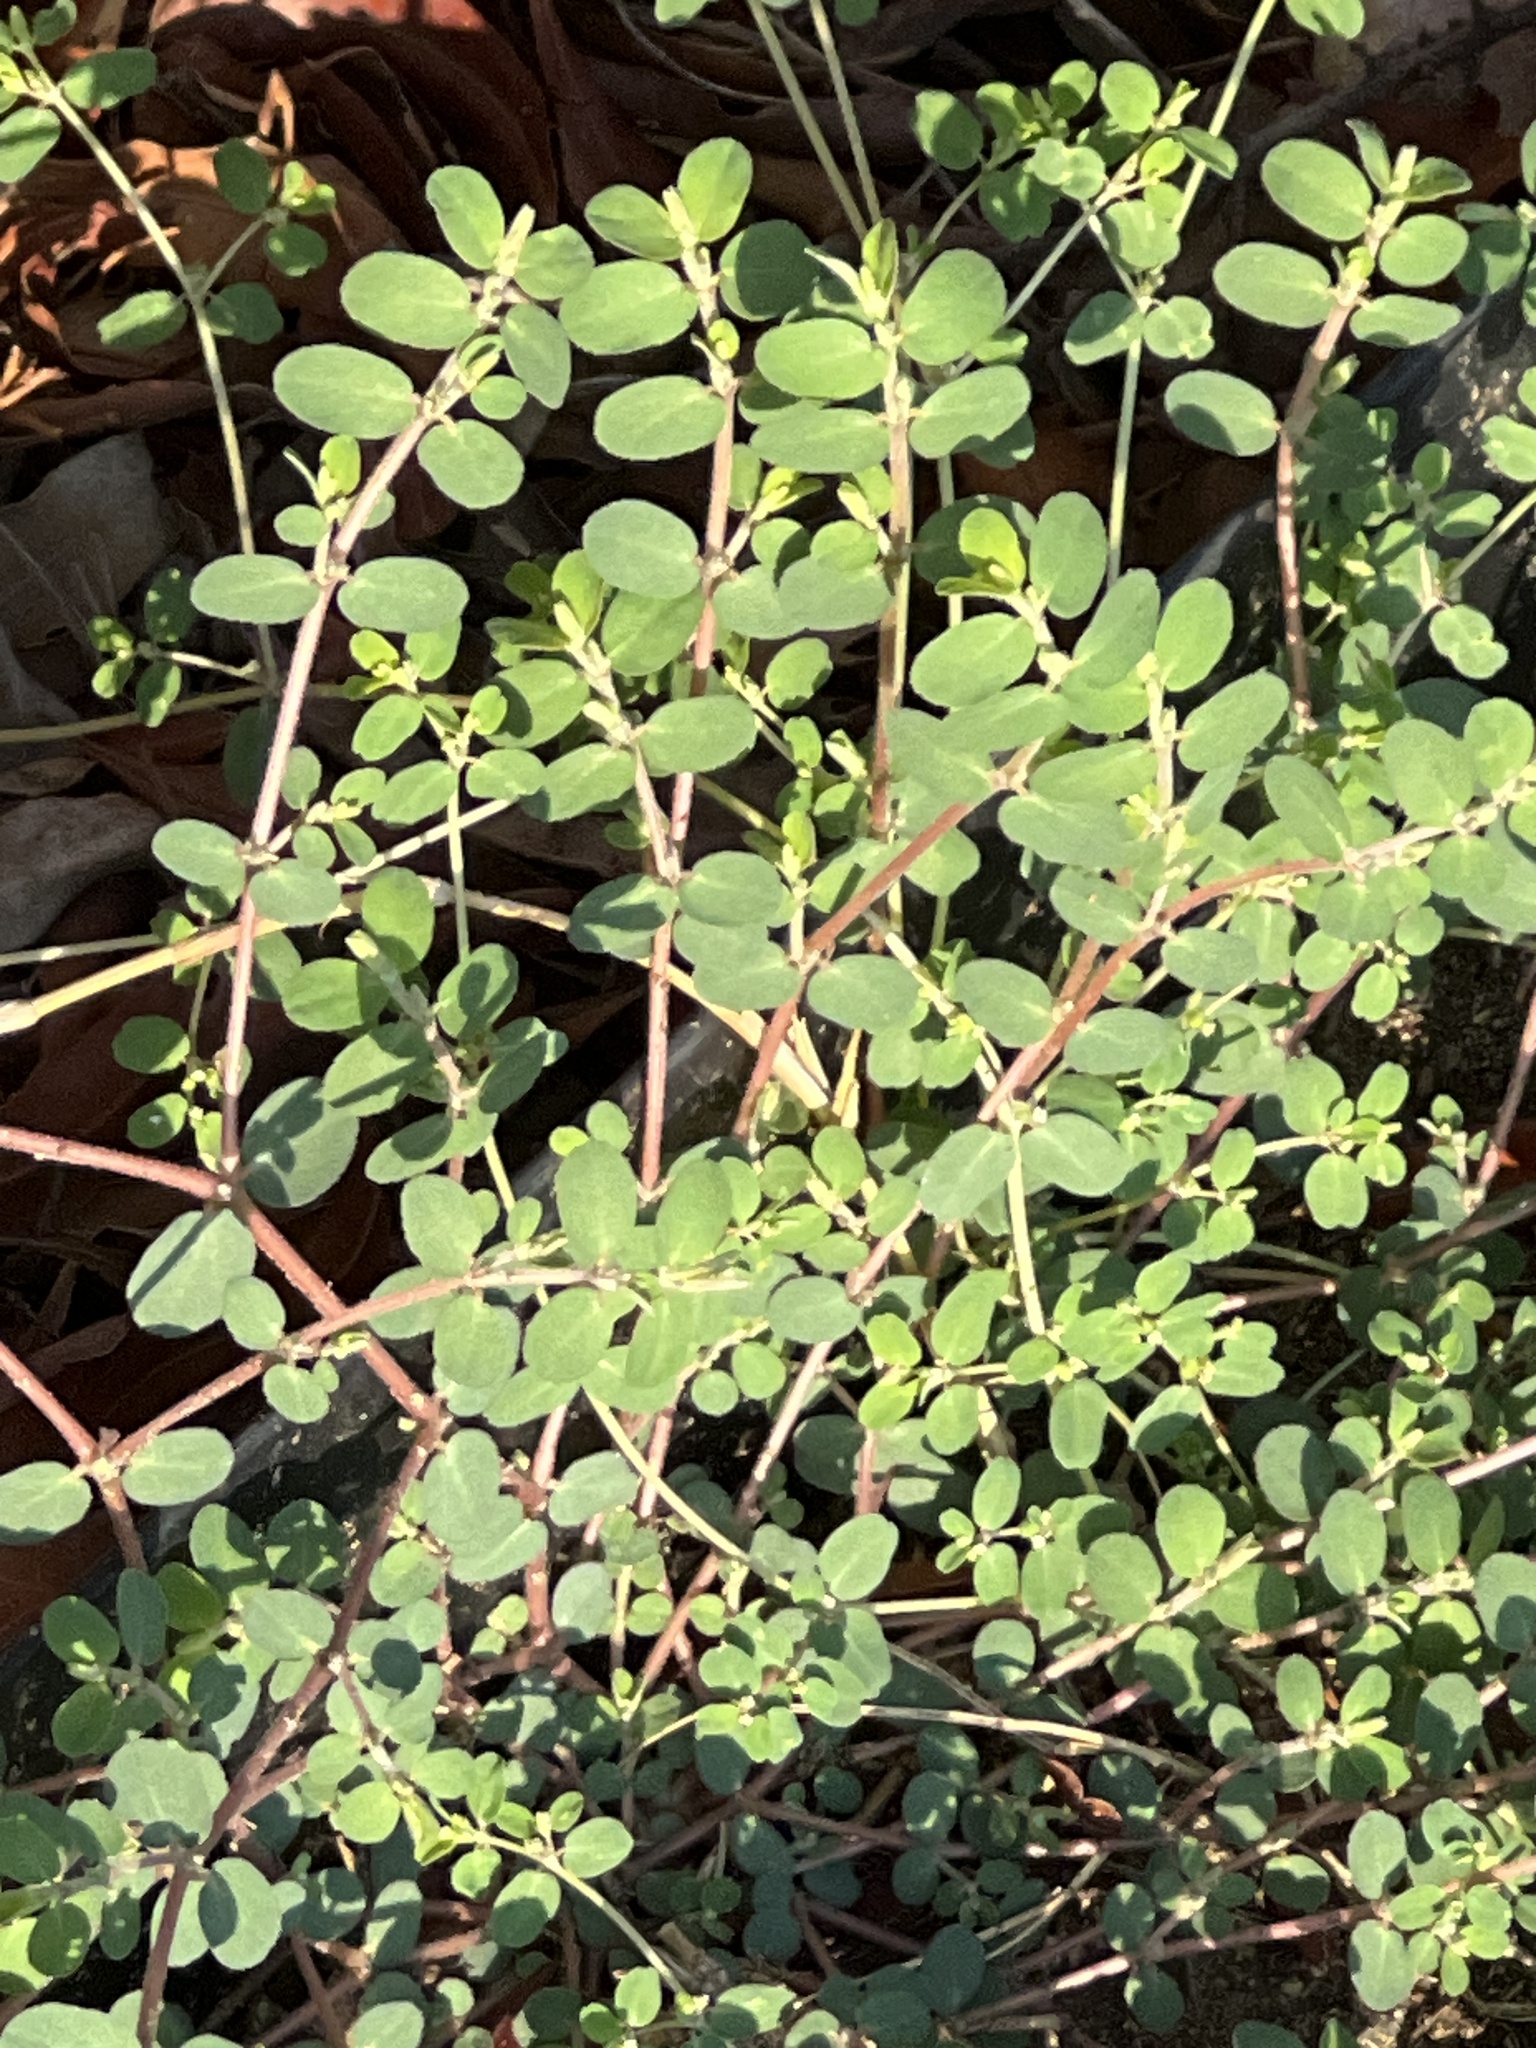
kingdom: Plantae
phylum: Tracheophyta
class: Magnoliopsida
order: Malpighiales
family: Euphorbiaceae
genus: Euphorbia
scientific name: Euphorbia prostrata
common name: Prostrate sandmat
